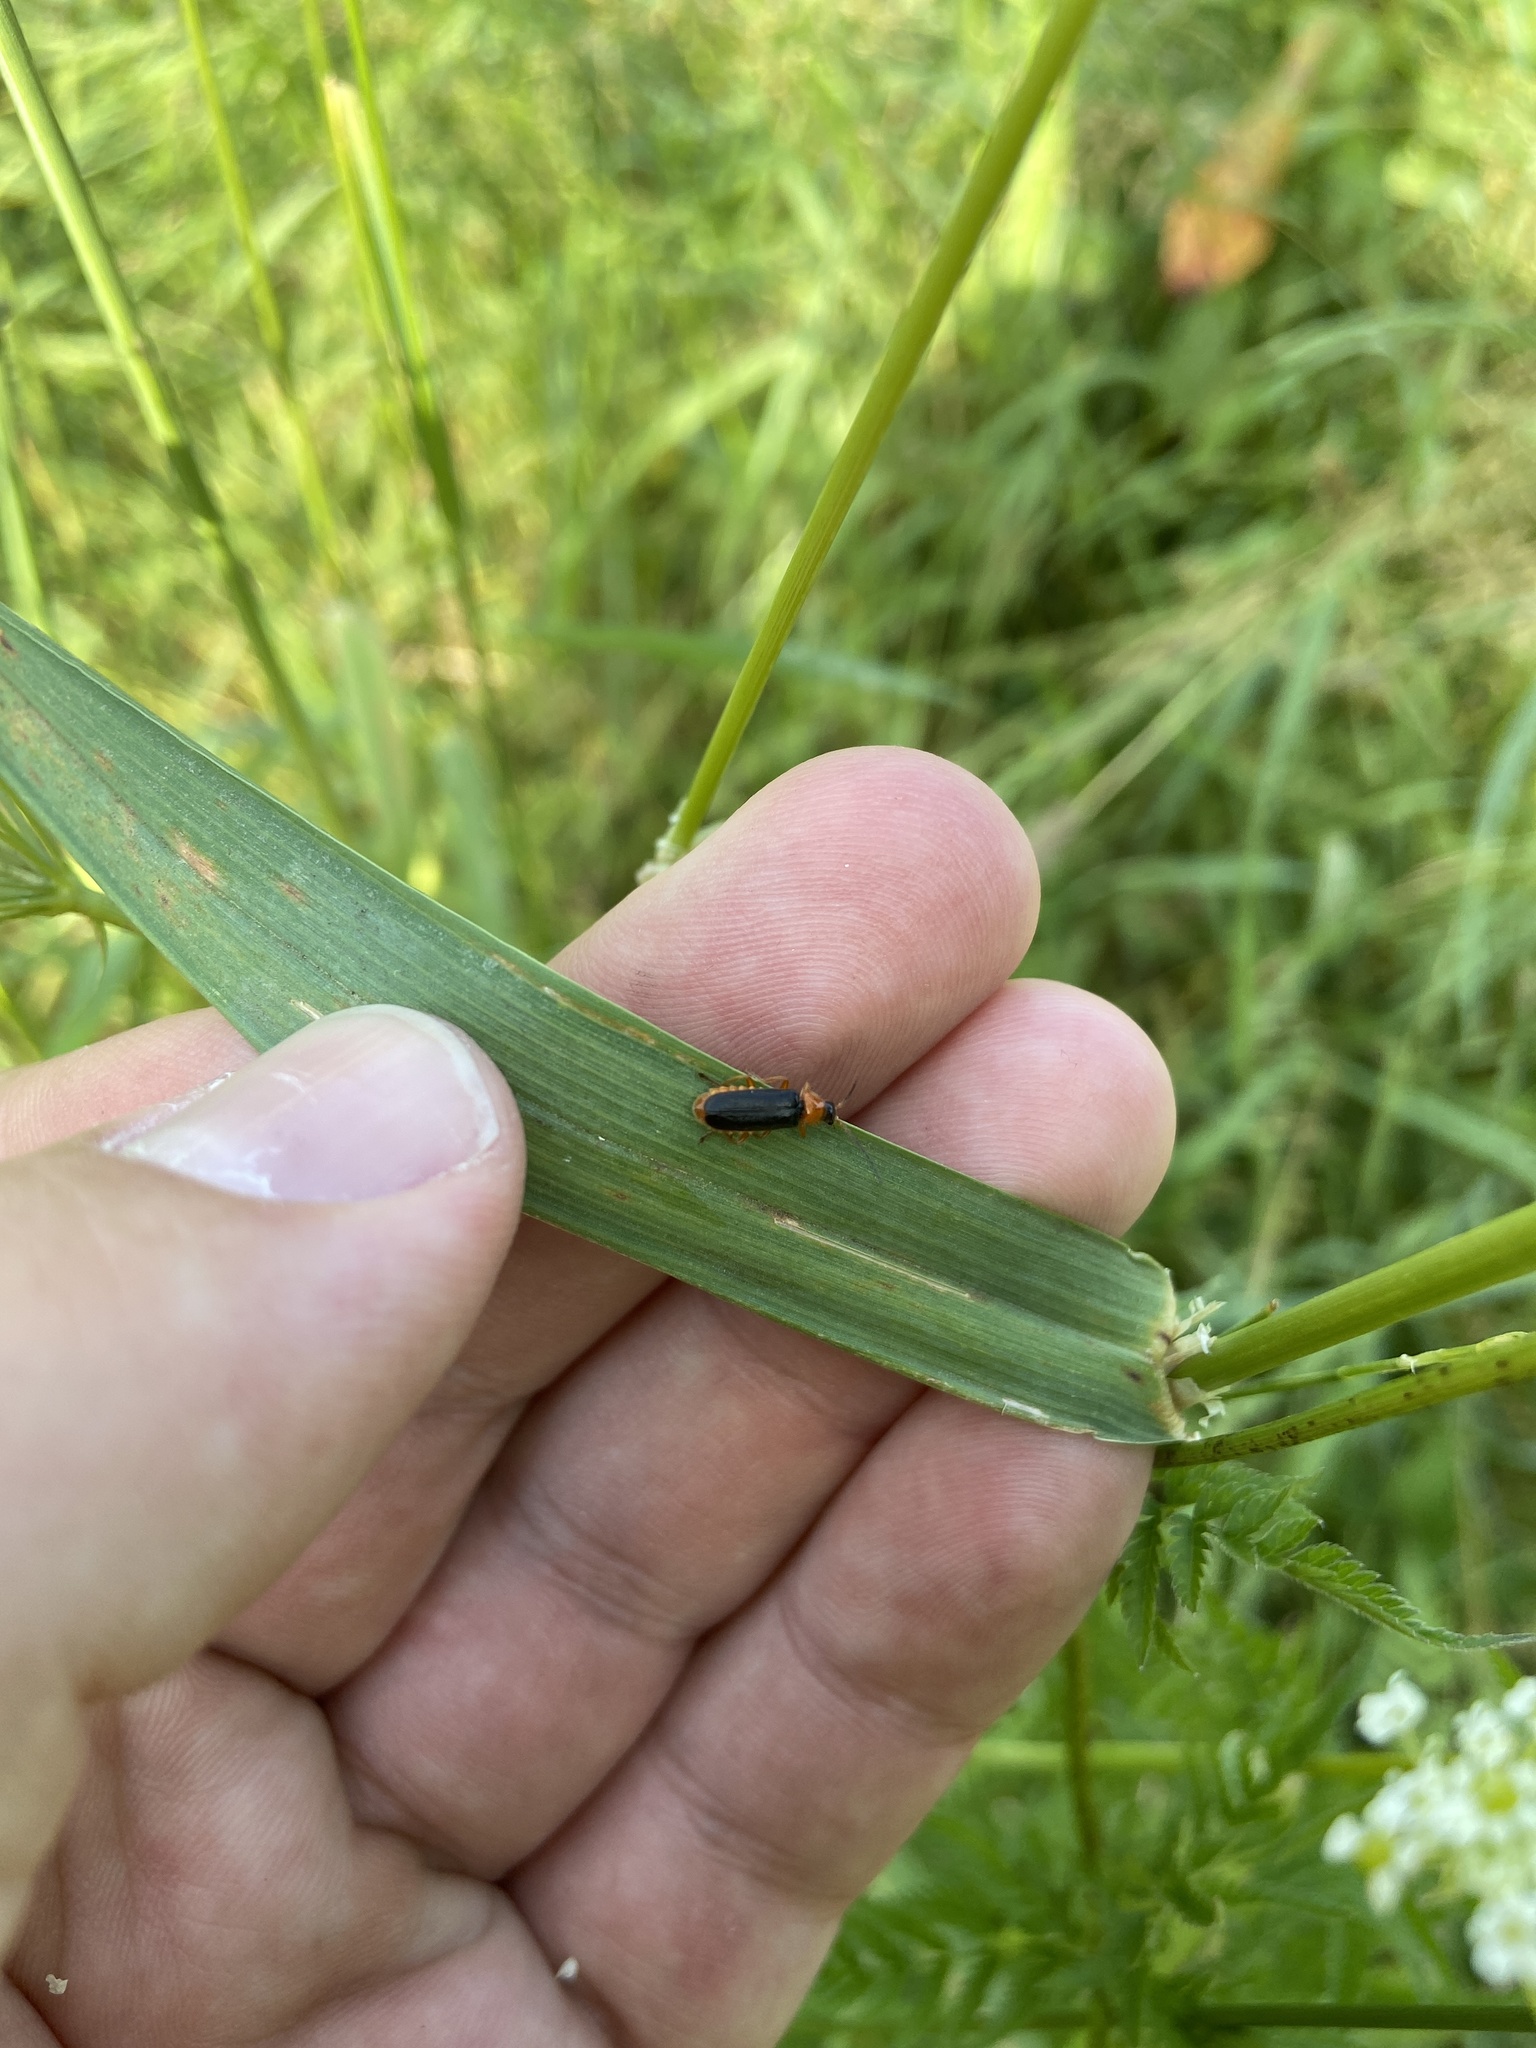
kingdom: Animalia
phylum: Arthropoda
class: Insecta
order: Coleoptera
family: Cantharidae
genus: Cantharis
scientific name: Cantharis flavilabris
